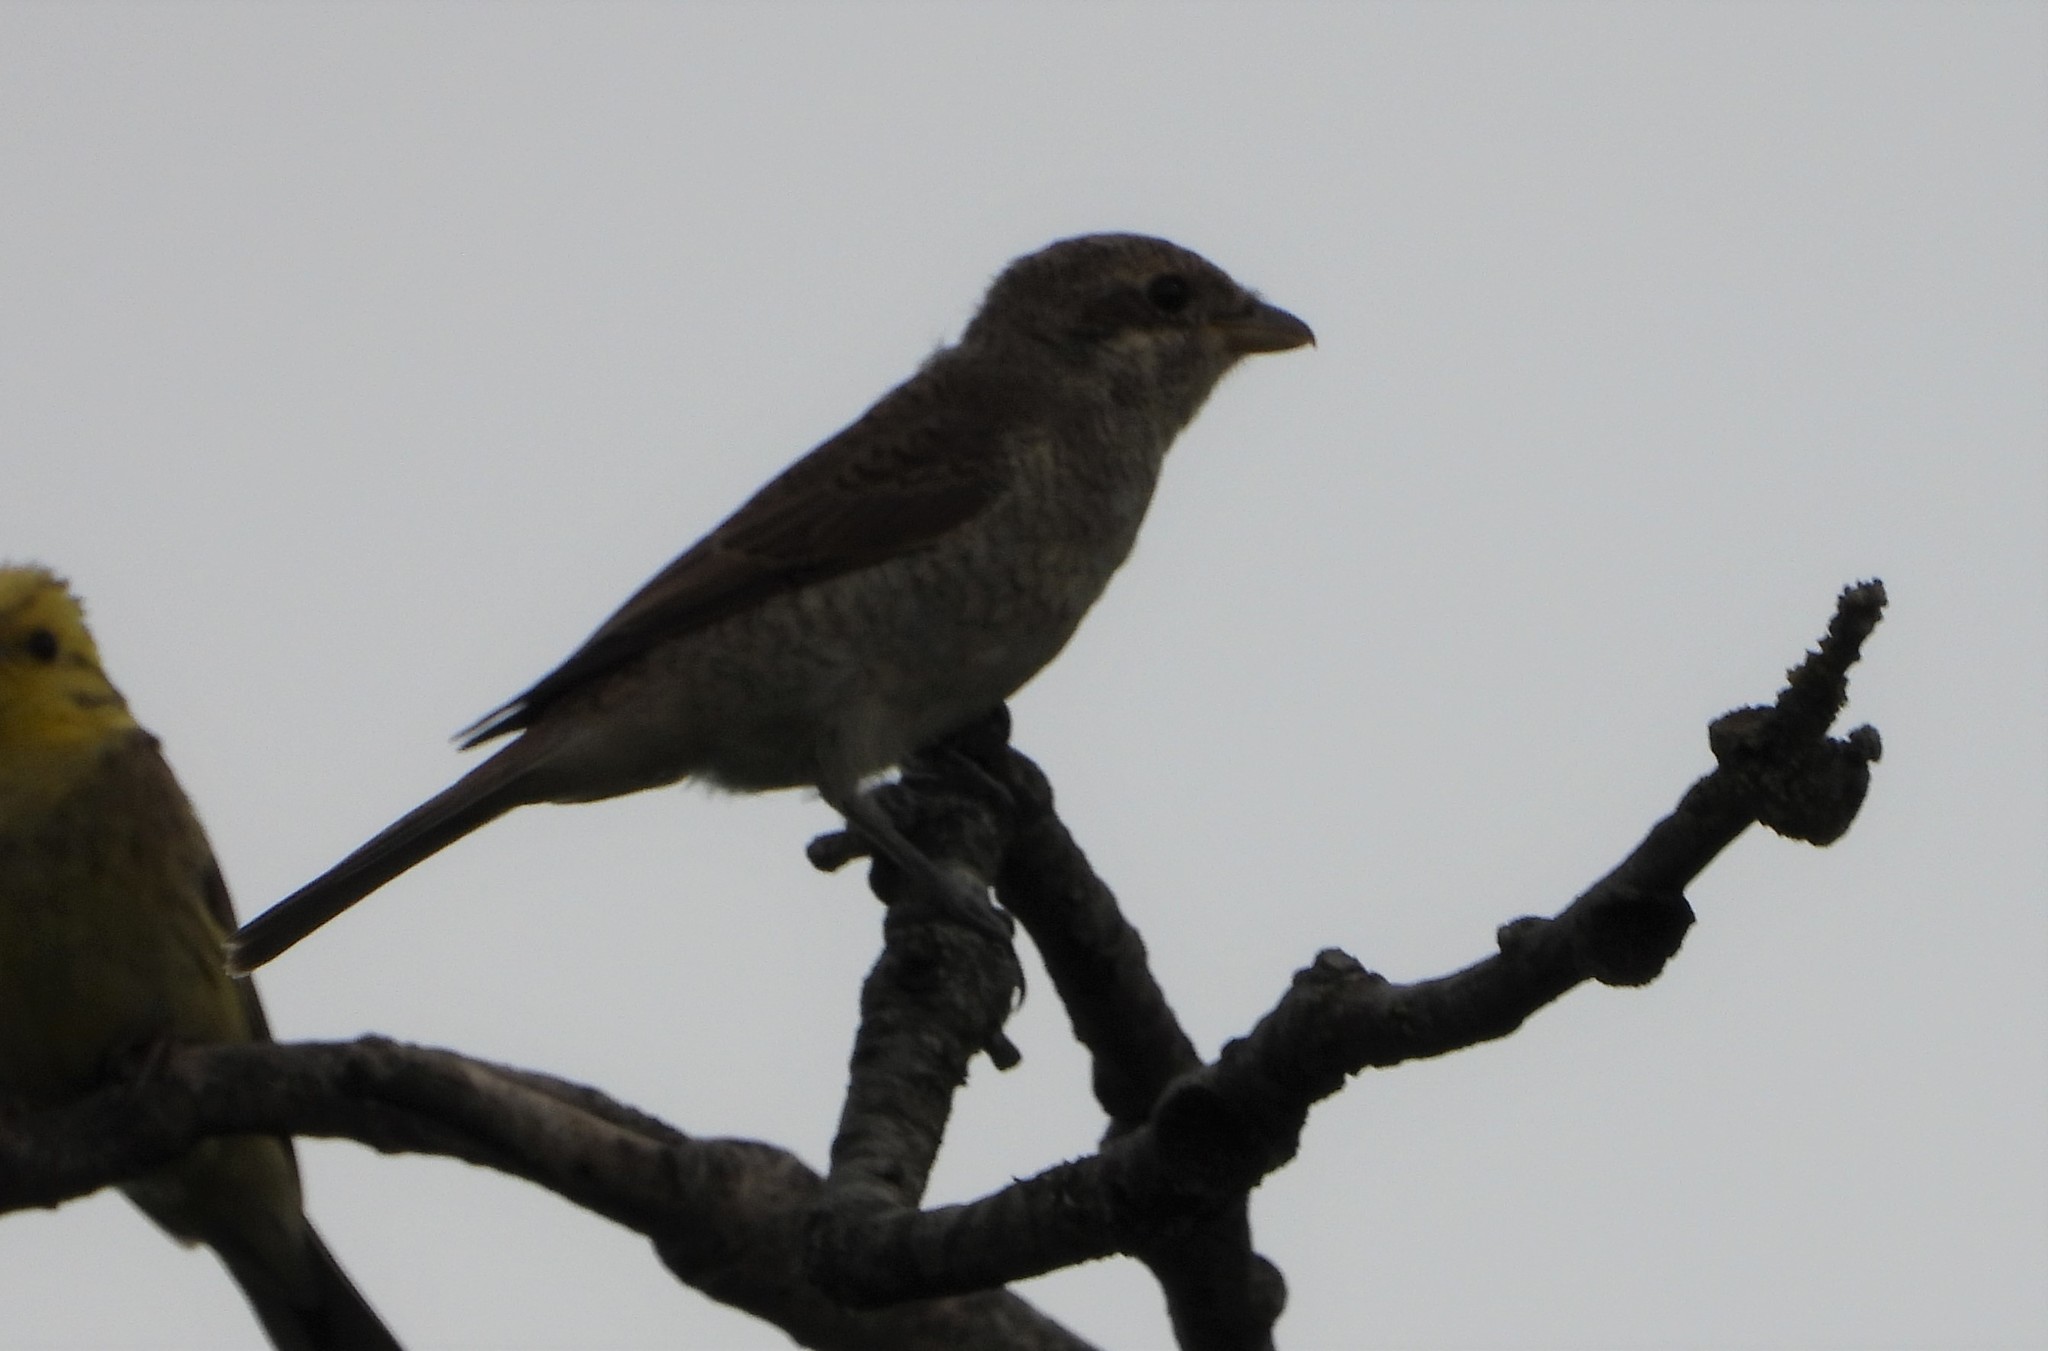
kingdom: Animalia
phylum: Chordata
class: Aves
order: Passeriformes
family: Laniidae
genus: Lanius
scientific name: Lanius collurio
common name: Red-backed shrike
